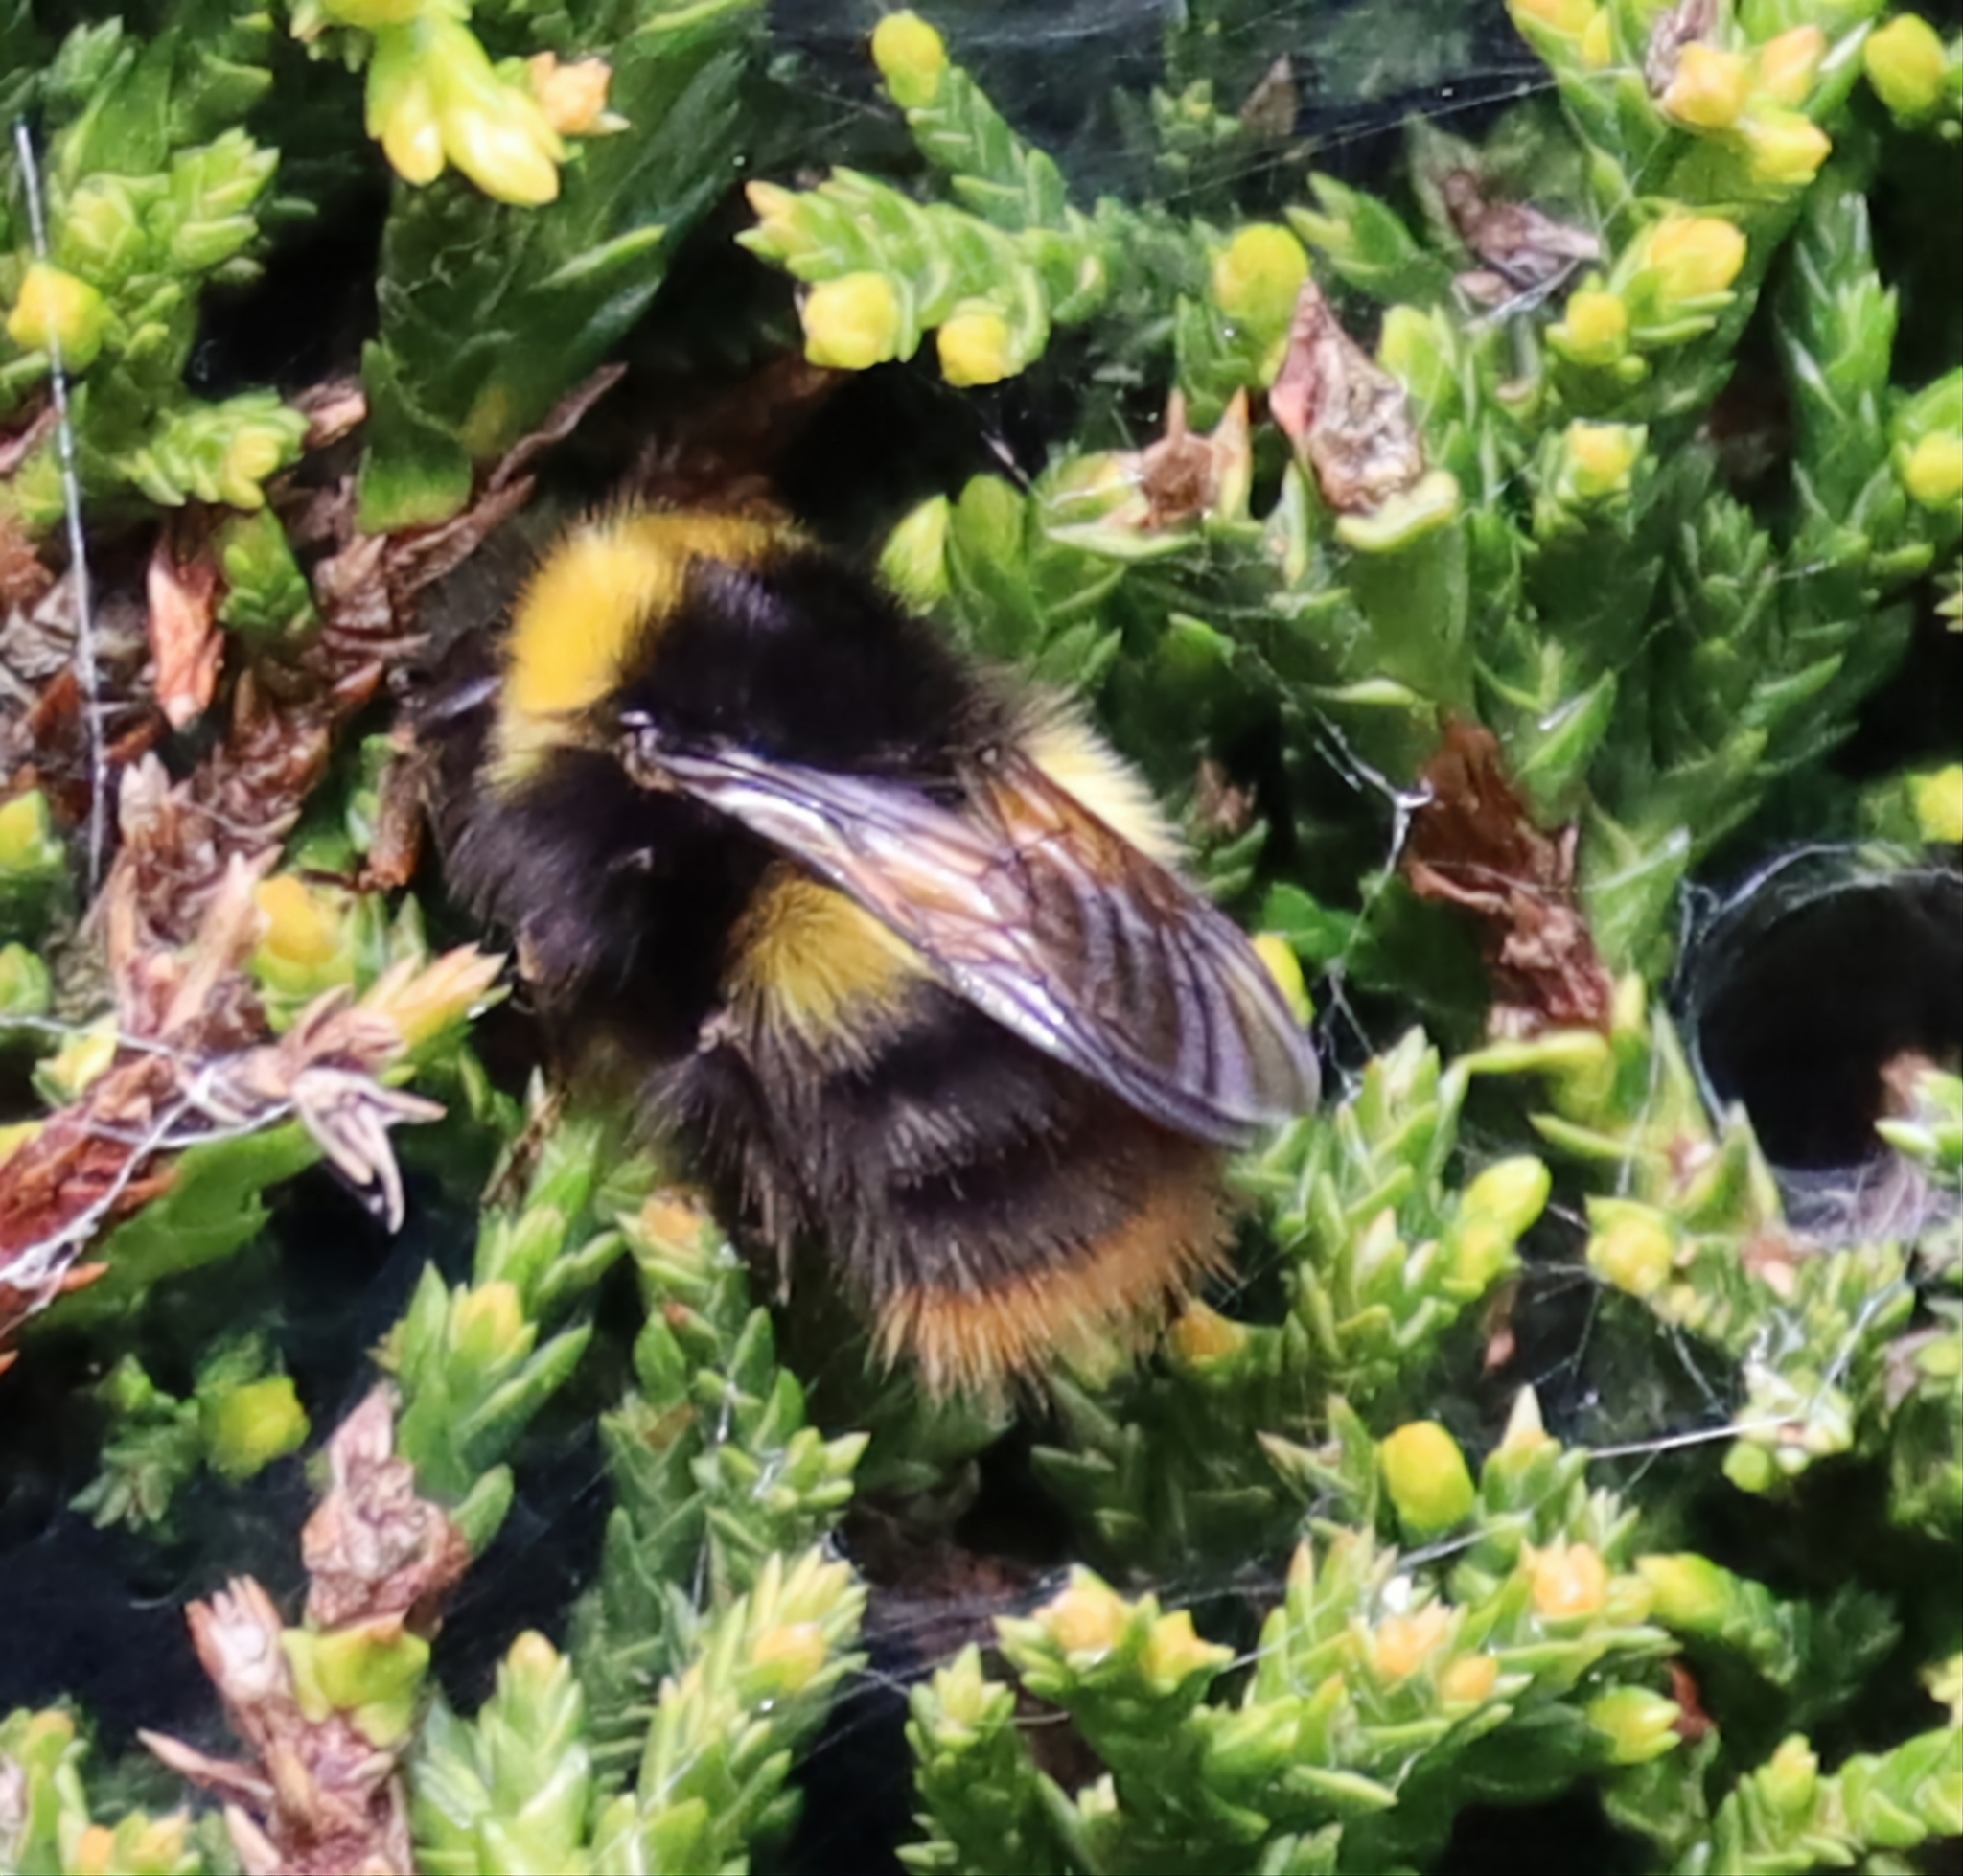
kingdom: Animalia
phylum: Arthropoda
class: Insecta
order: Hymenoptera
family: Apidae
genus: Bombus
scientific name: Bombus pratorum
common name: Early humble-bee
